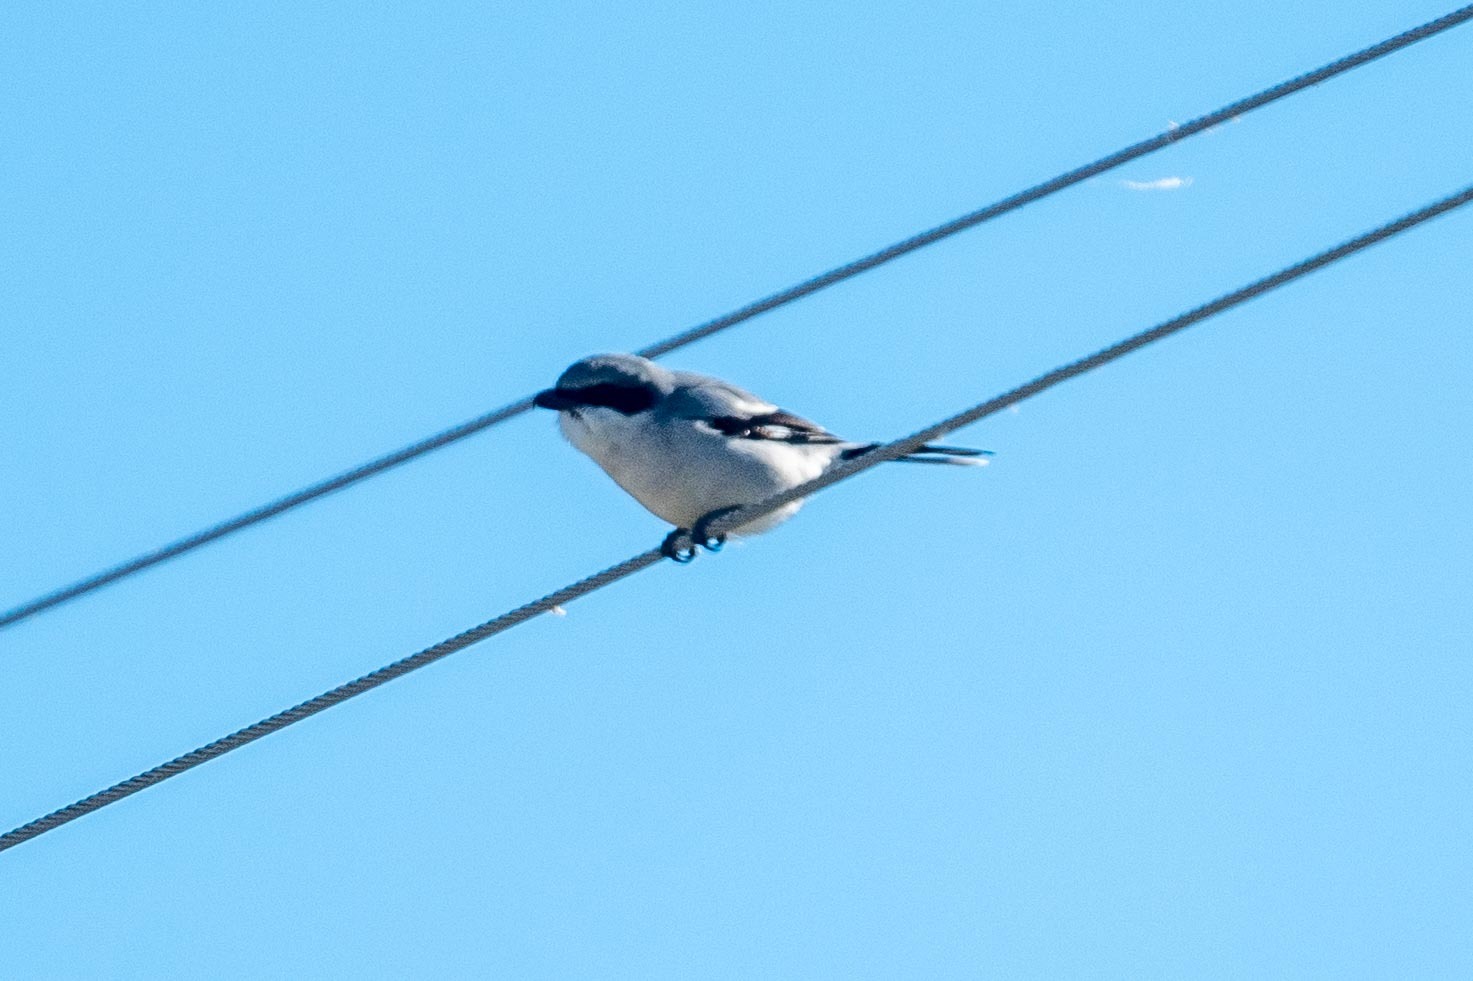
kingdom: Animalia
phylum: Chordata
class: Aves
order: Passeriformes
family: Laniidae
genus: Lanius
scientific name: Lanius ludovicianus
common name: Loggerhead shrike
